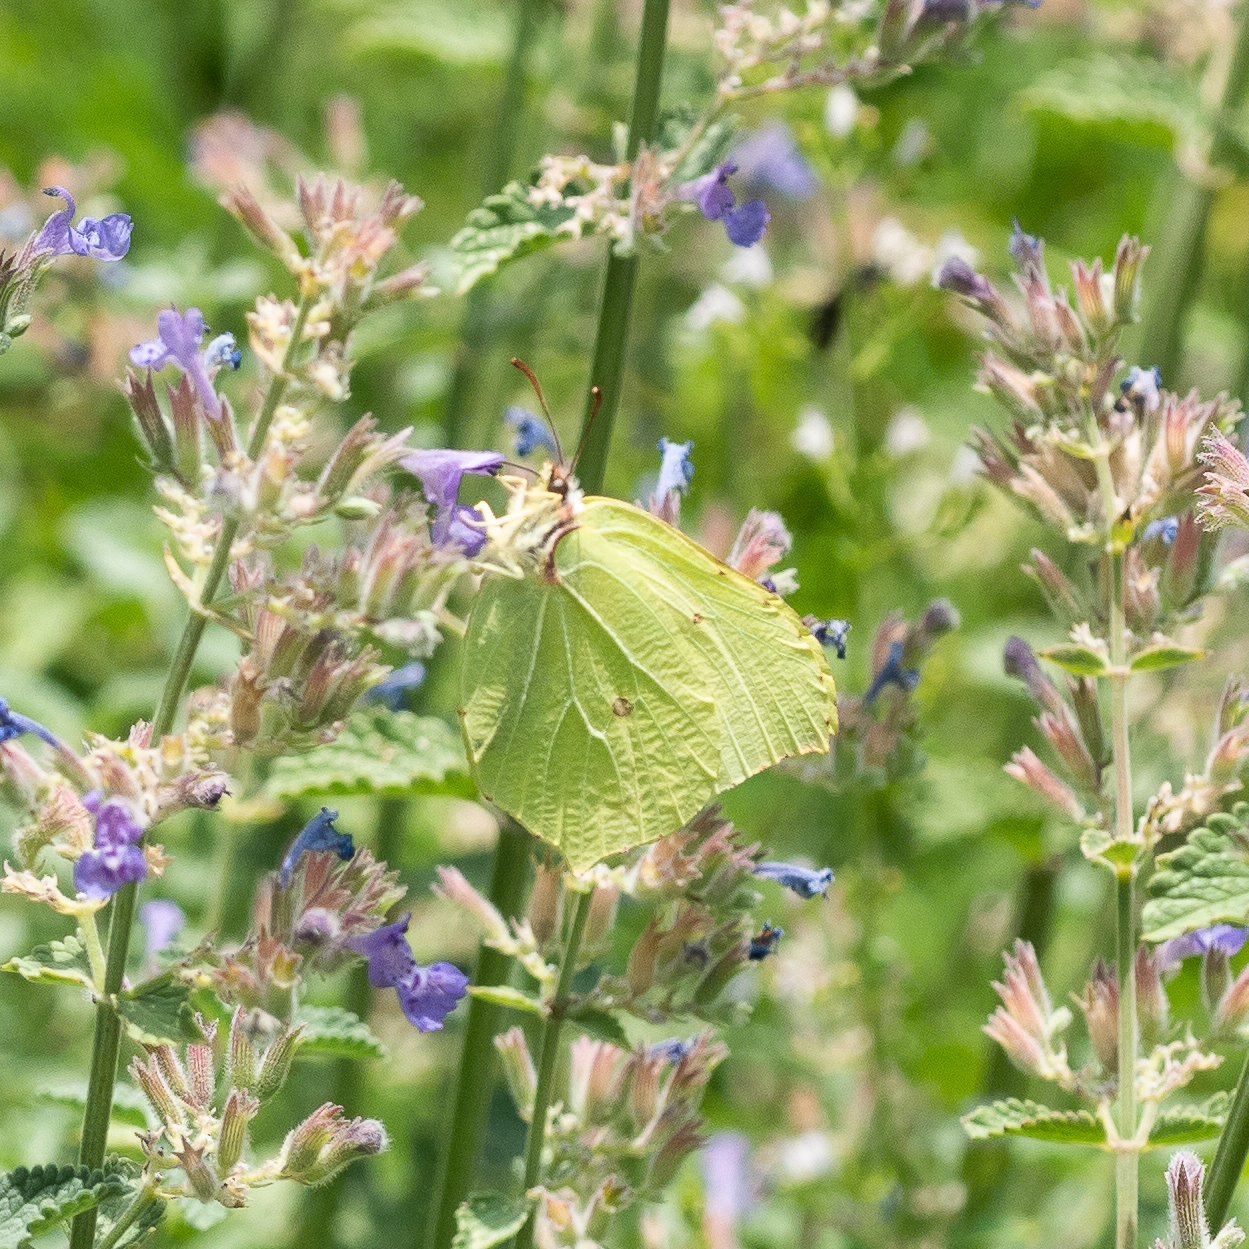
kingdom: Animalia
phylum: Arthropoda
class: Insecta
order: Lepidoptera
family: Pieridae
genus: Gonepteryx
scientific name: Gonepteryx rhamni
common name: Brimstone
